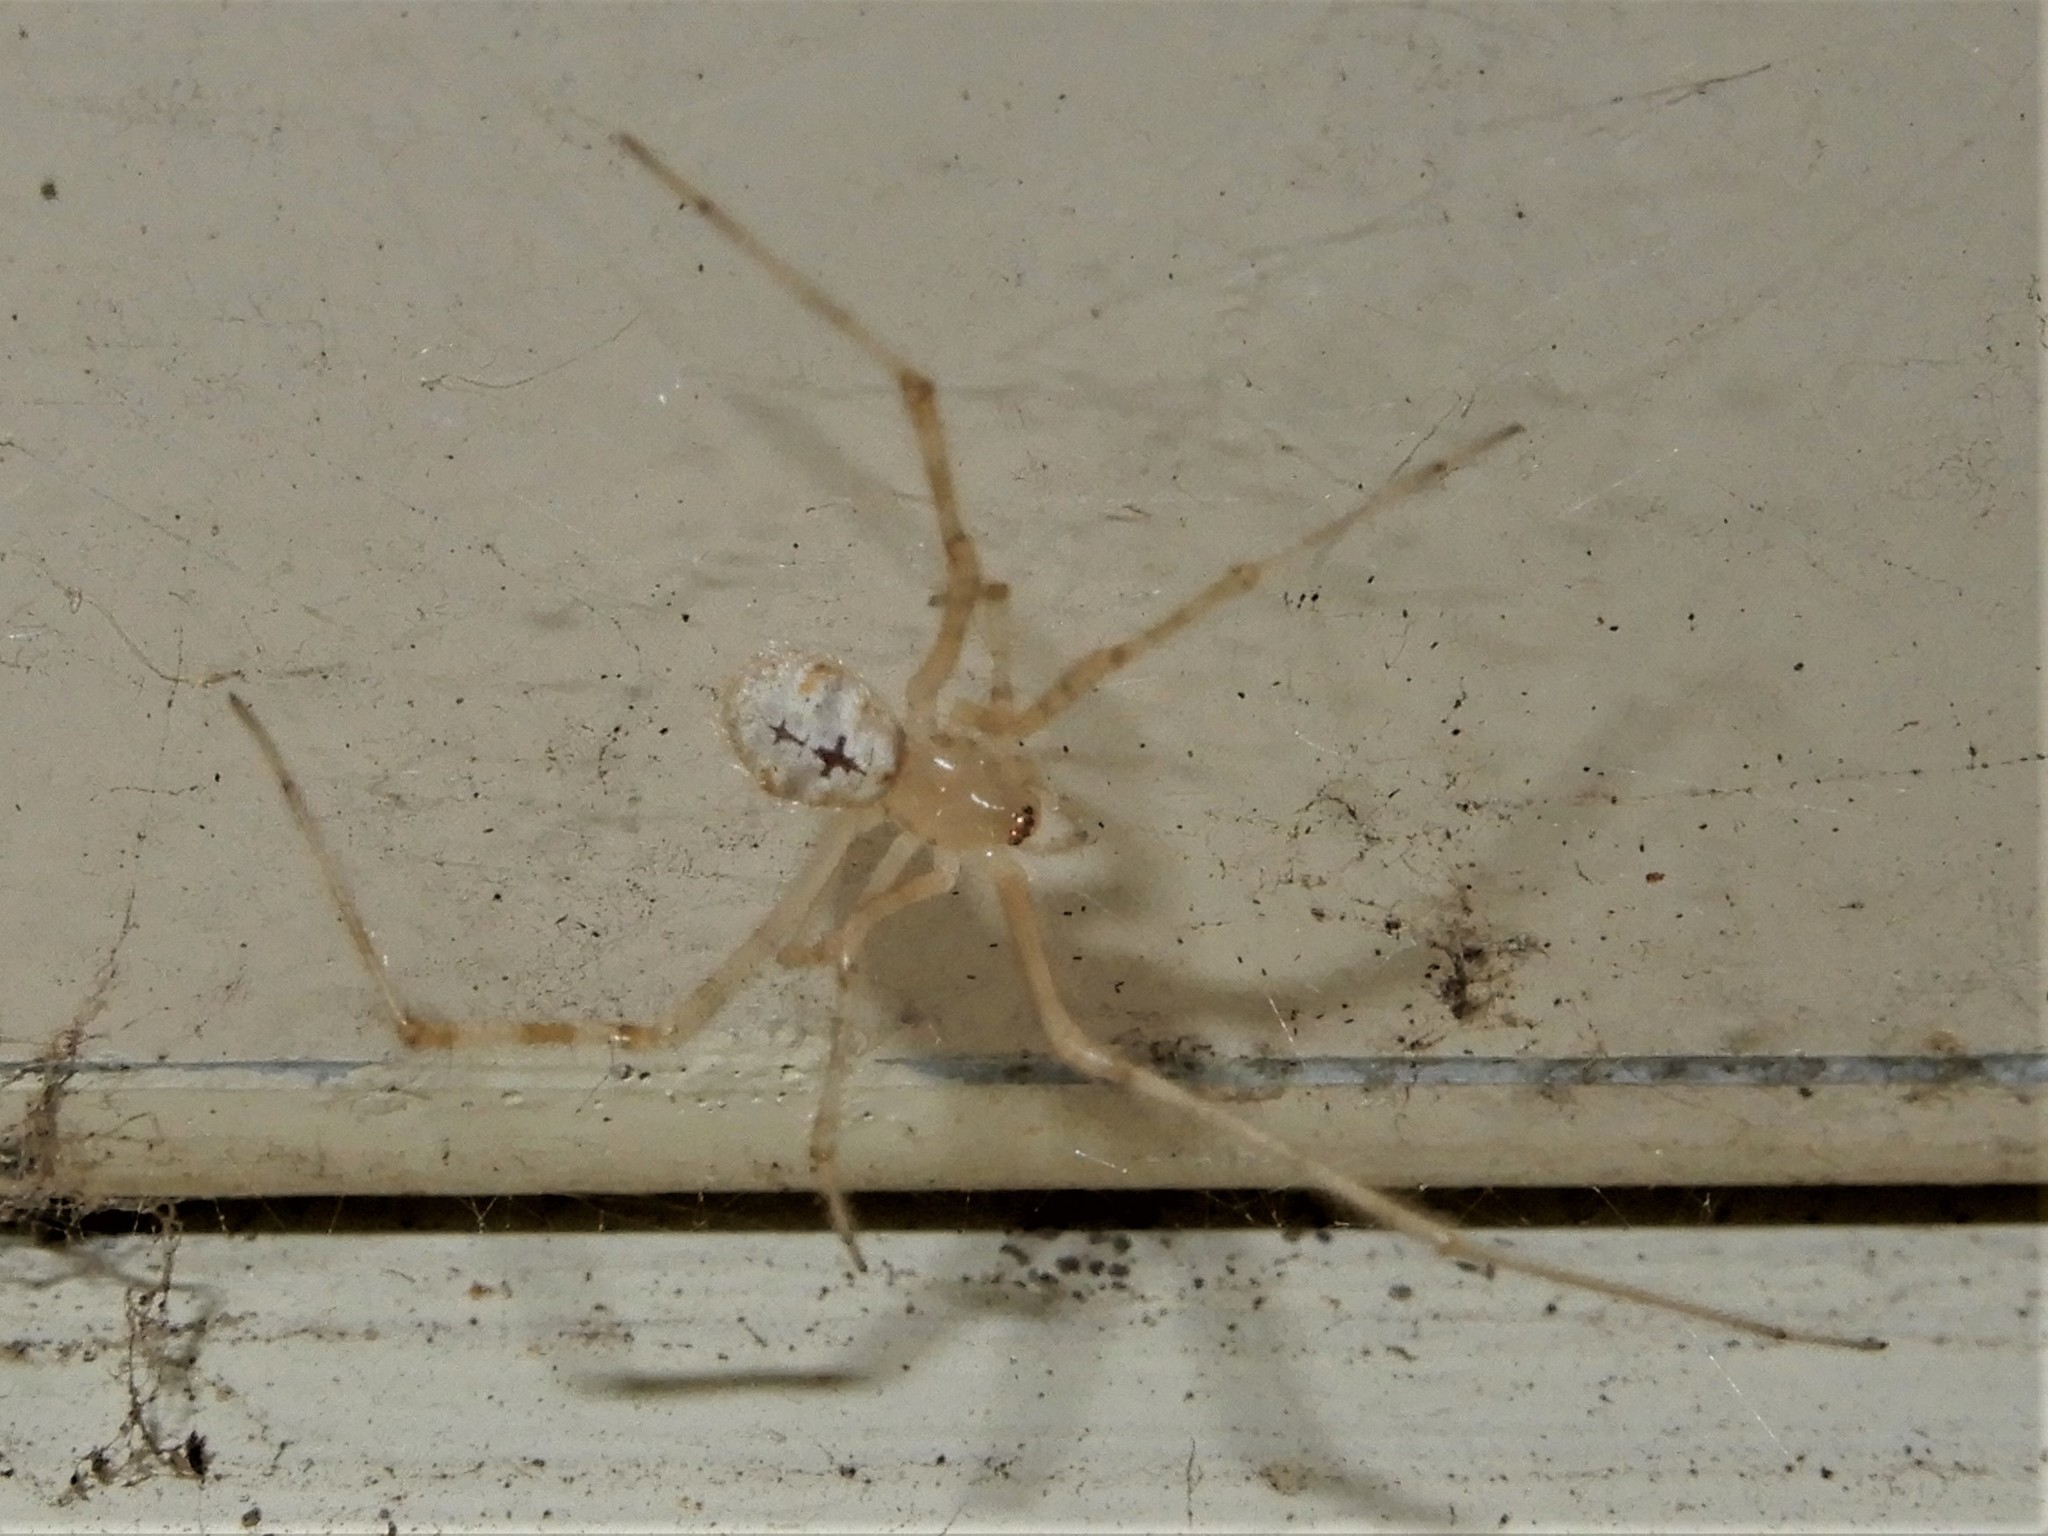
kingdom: Animalia
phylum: Arthropoda
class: Arachnida
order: Araneae
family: Theridiidae
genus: Cryptachaea
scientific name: Cryptachaea gigantipes
